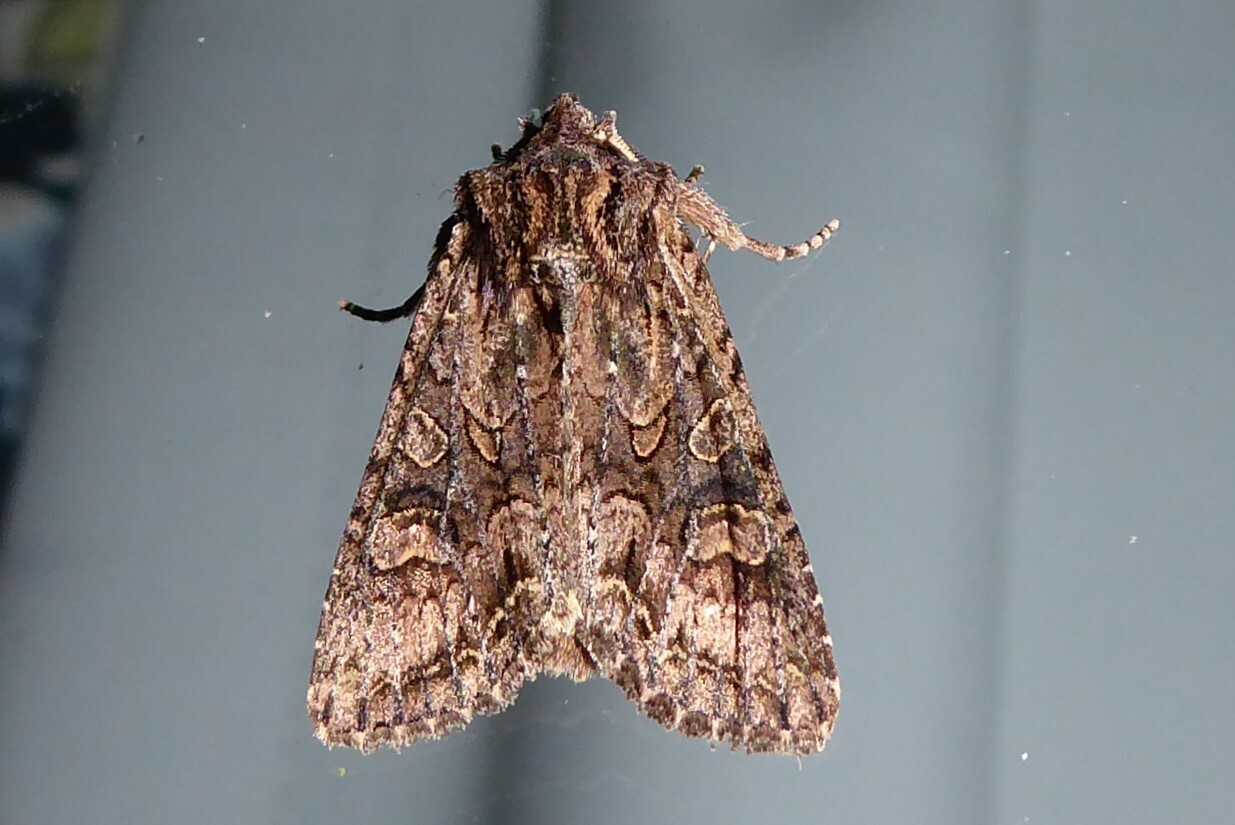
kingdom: Animalia
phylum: Arthropoda
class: Insecta
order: Lepidoptera
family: Noctuidae
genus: Ichneutica
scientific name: Ichneutica mutans
